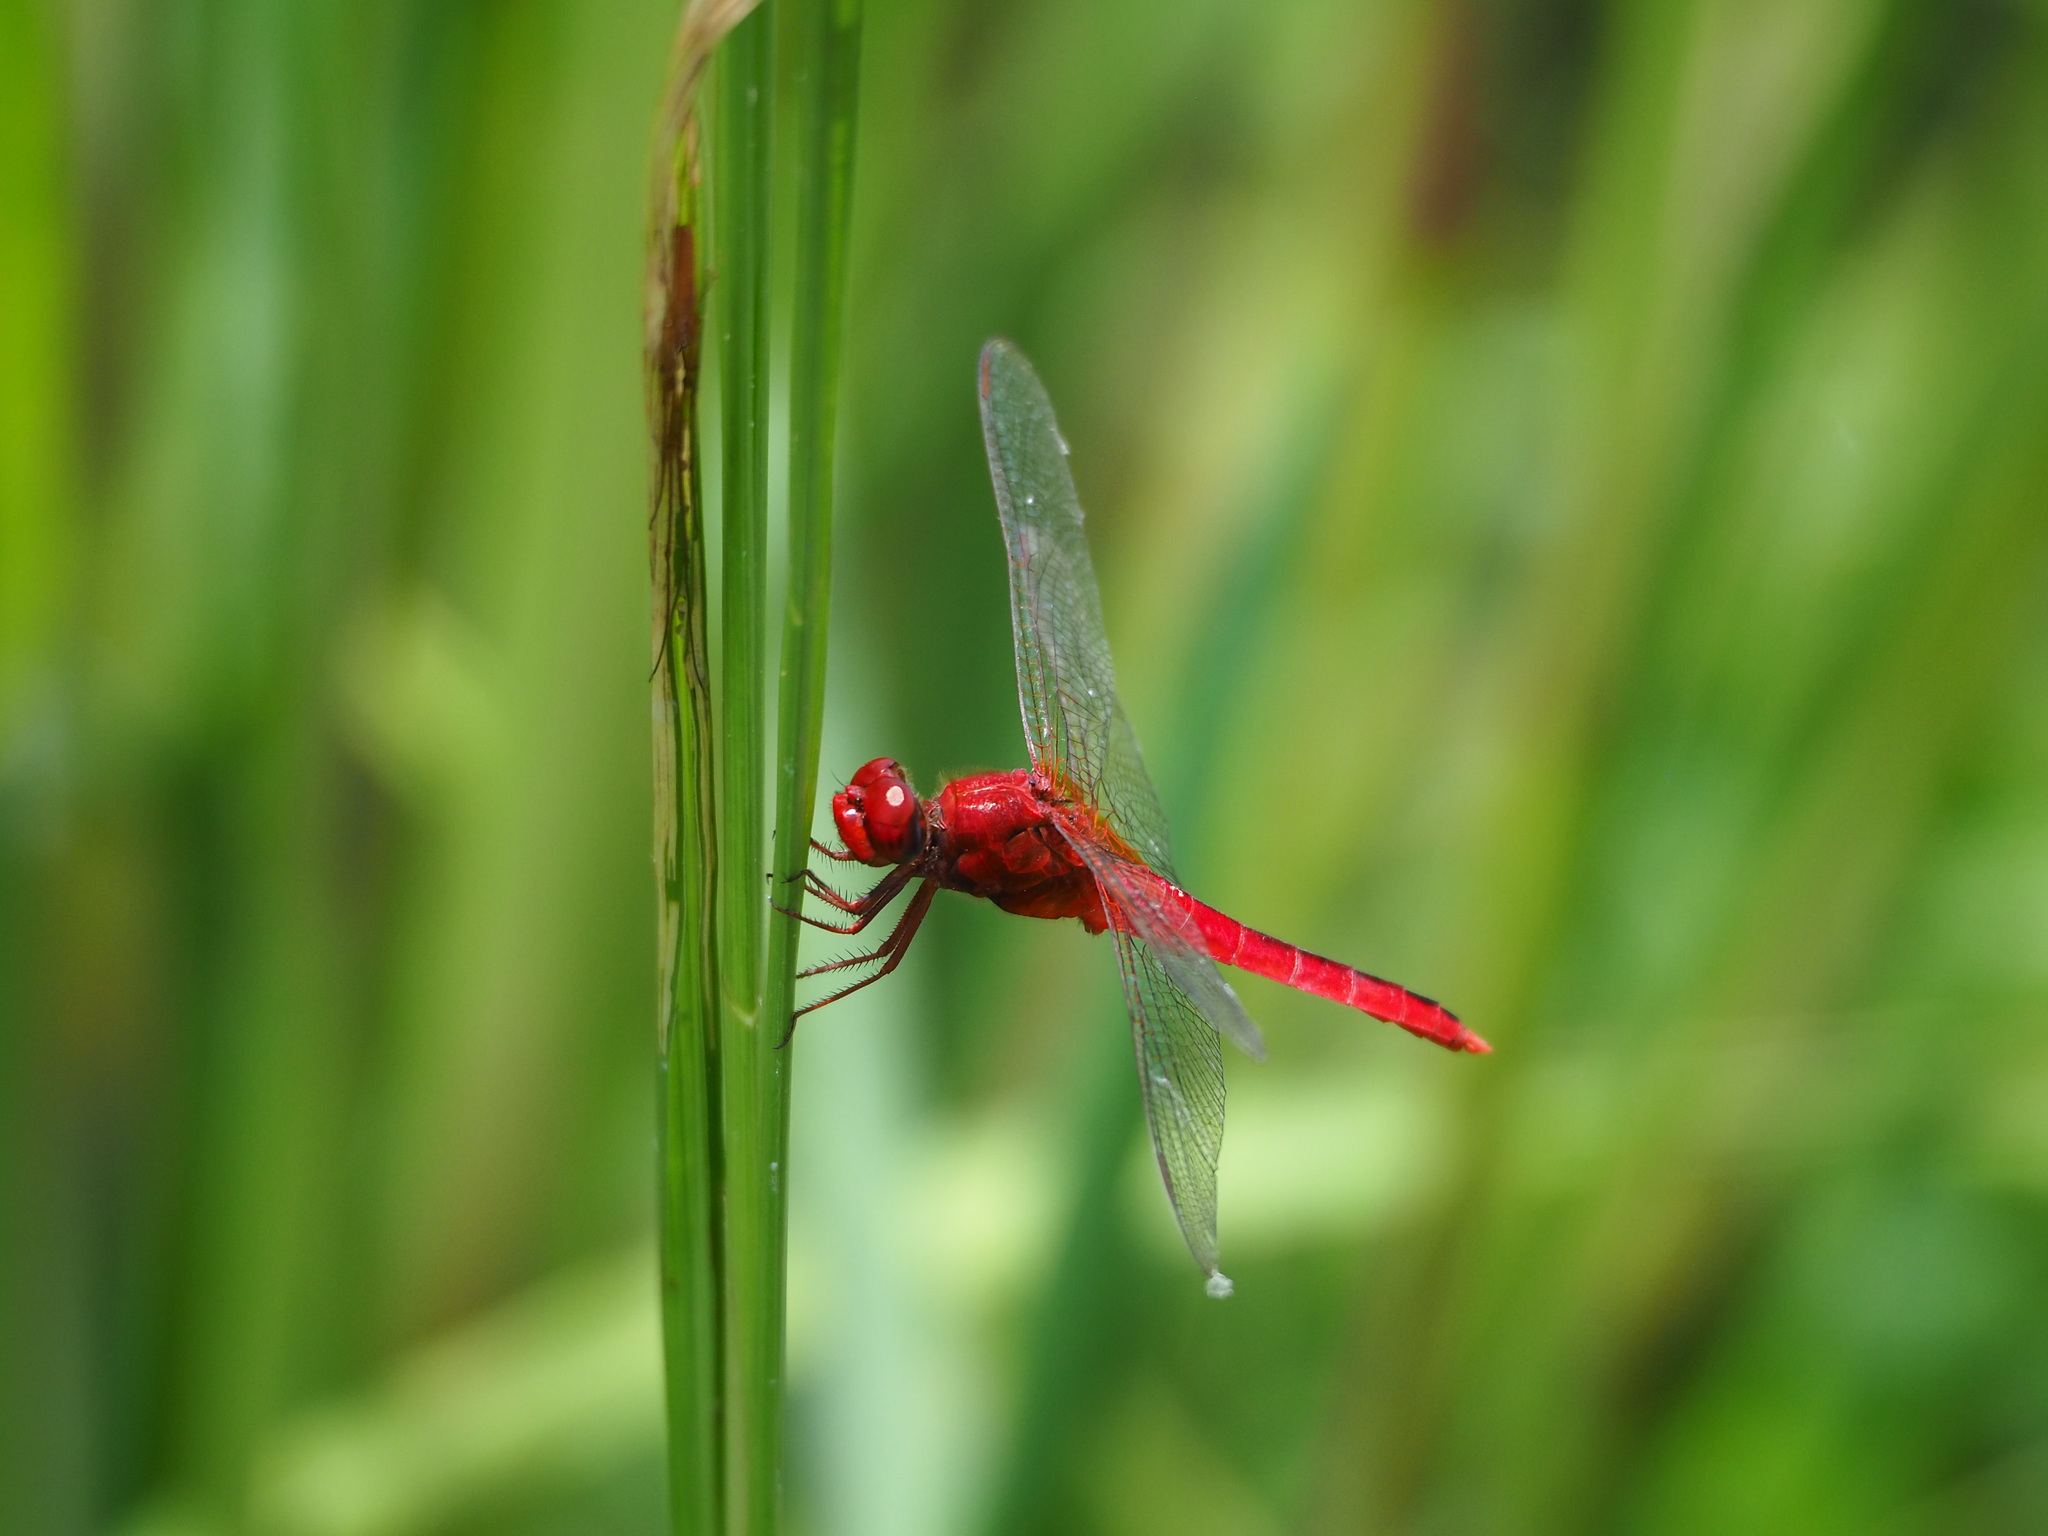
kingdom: Animalia
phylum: Arthropoda
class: Insecta
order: Odonata
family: Libellulidae
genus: Crocothemis
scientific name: Crocothemis servilia
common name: Scarlet skimmer
